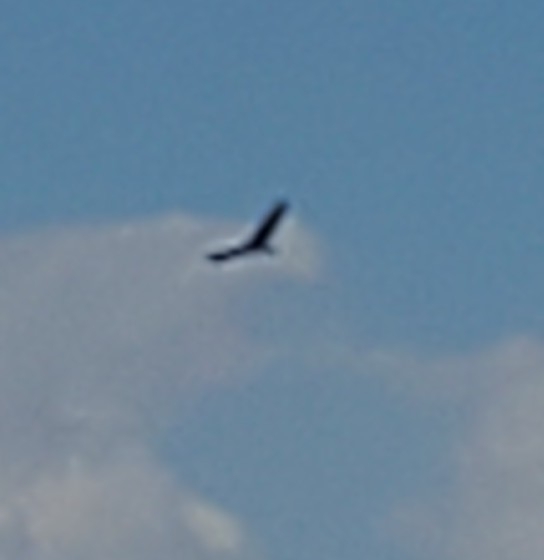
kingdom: Animalia
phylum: Chordata
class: Aves
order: Accipitriformes
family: Cathartidae
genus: Cathartes
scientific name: Cathartes aura
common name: Turkey vulture
